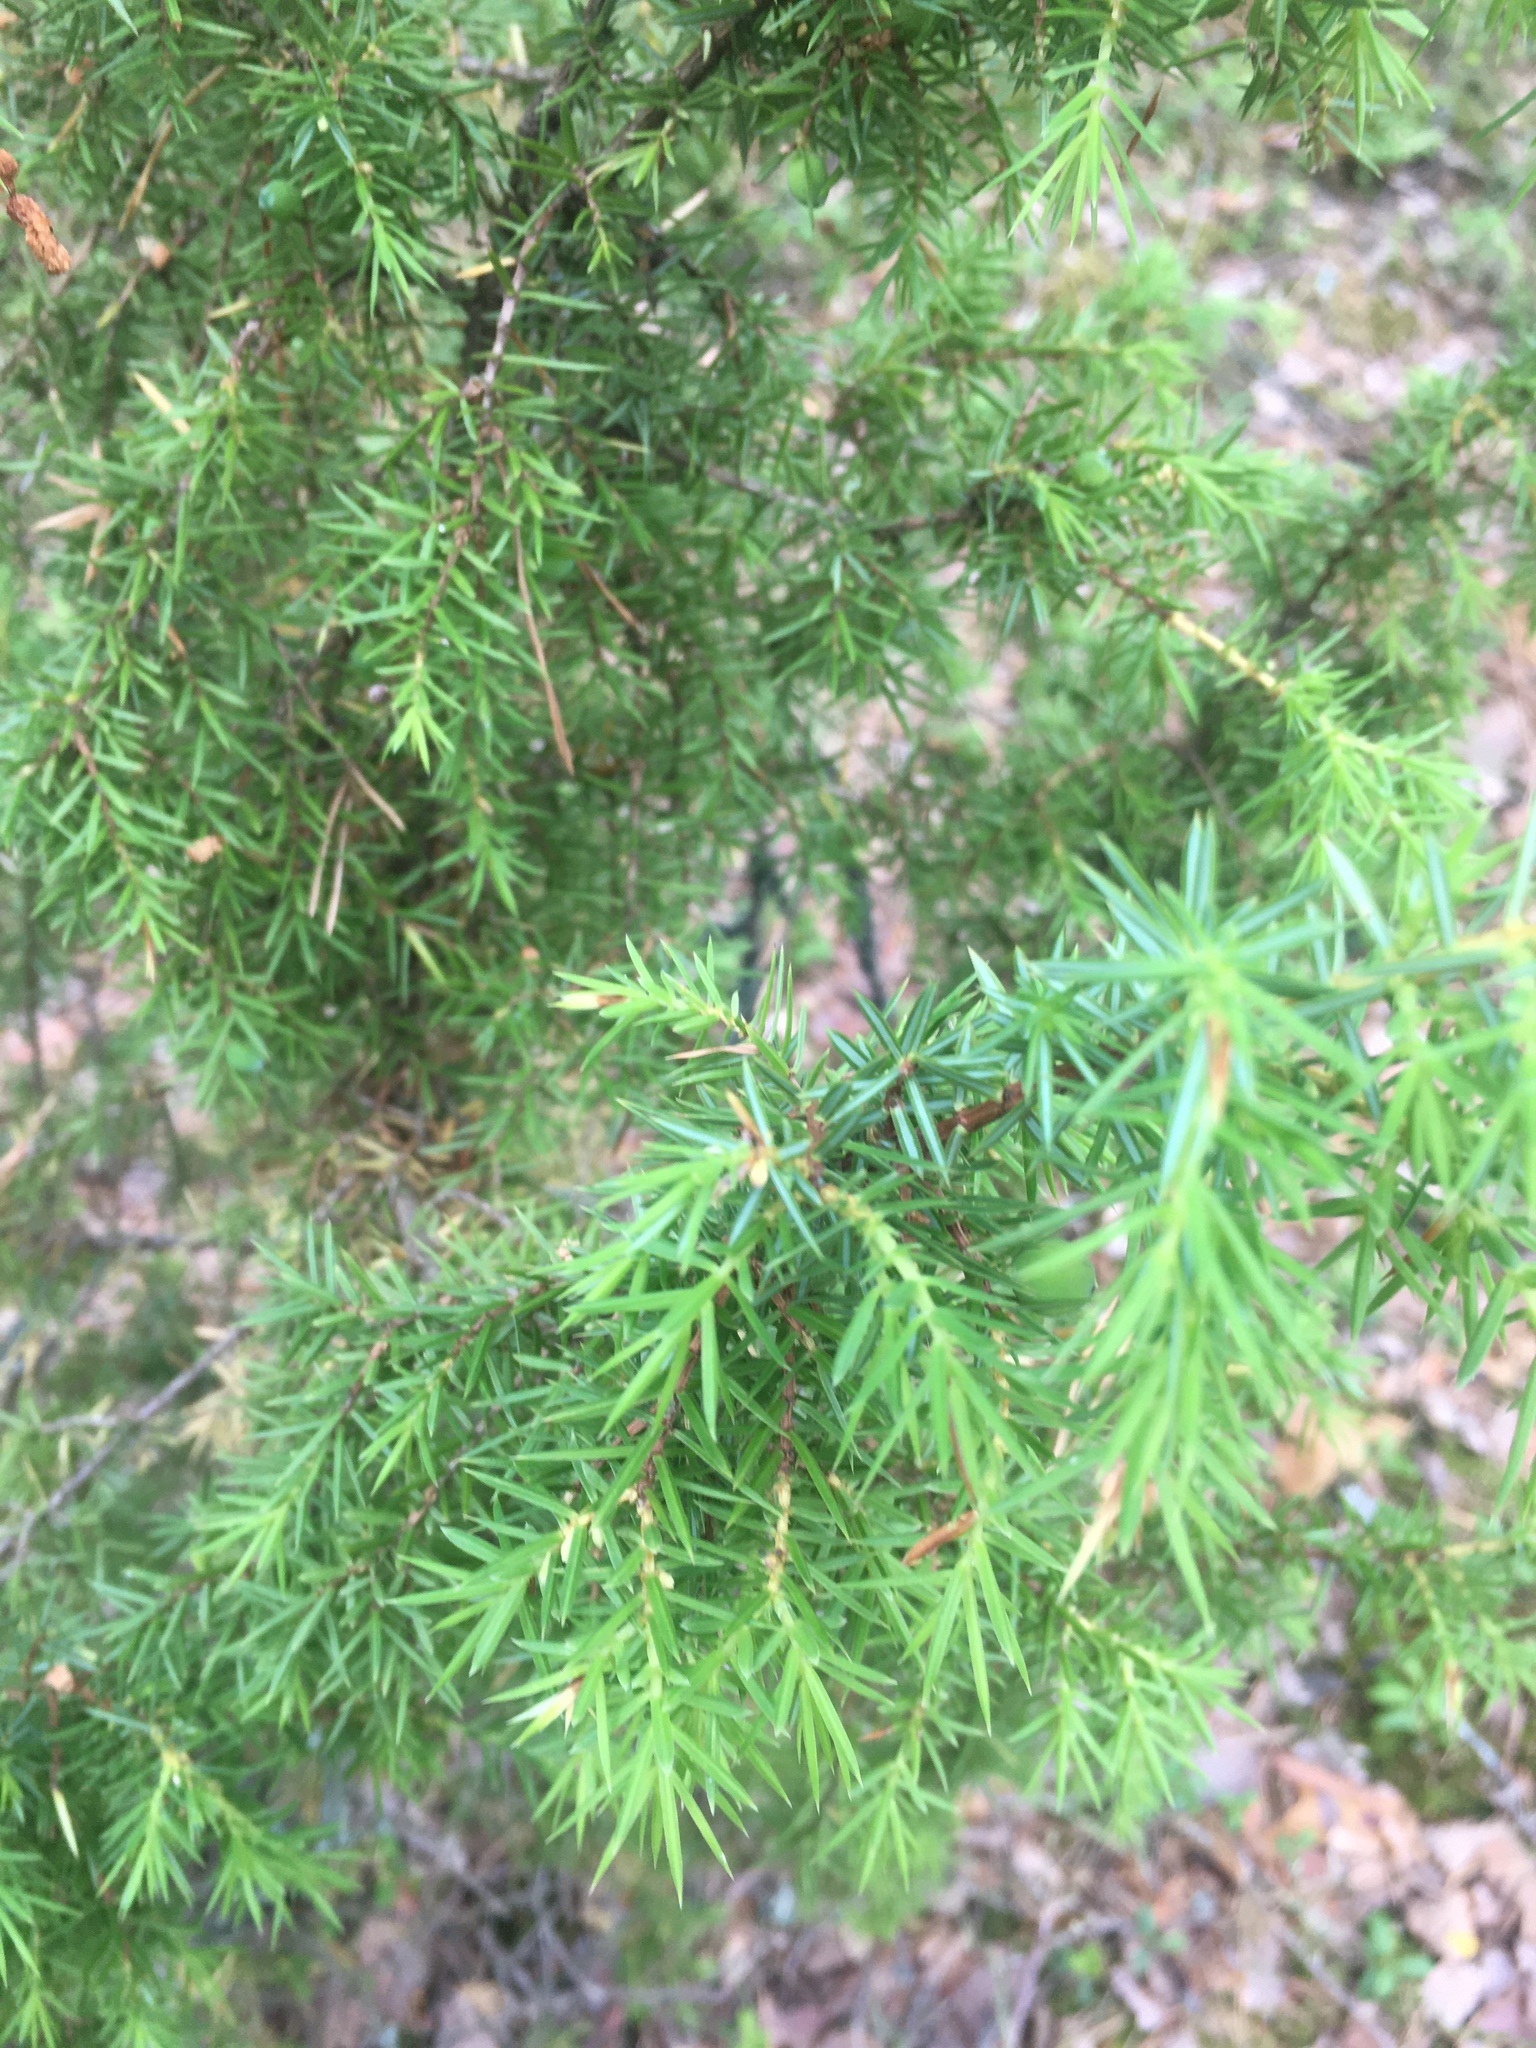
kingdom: Plantae
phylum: Tracheophyta
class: Pinopsida
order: Pinales
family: Cupressaceae
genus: Juniperus
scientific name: Juniperus communis
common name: Common juniper
